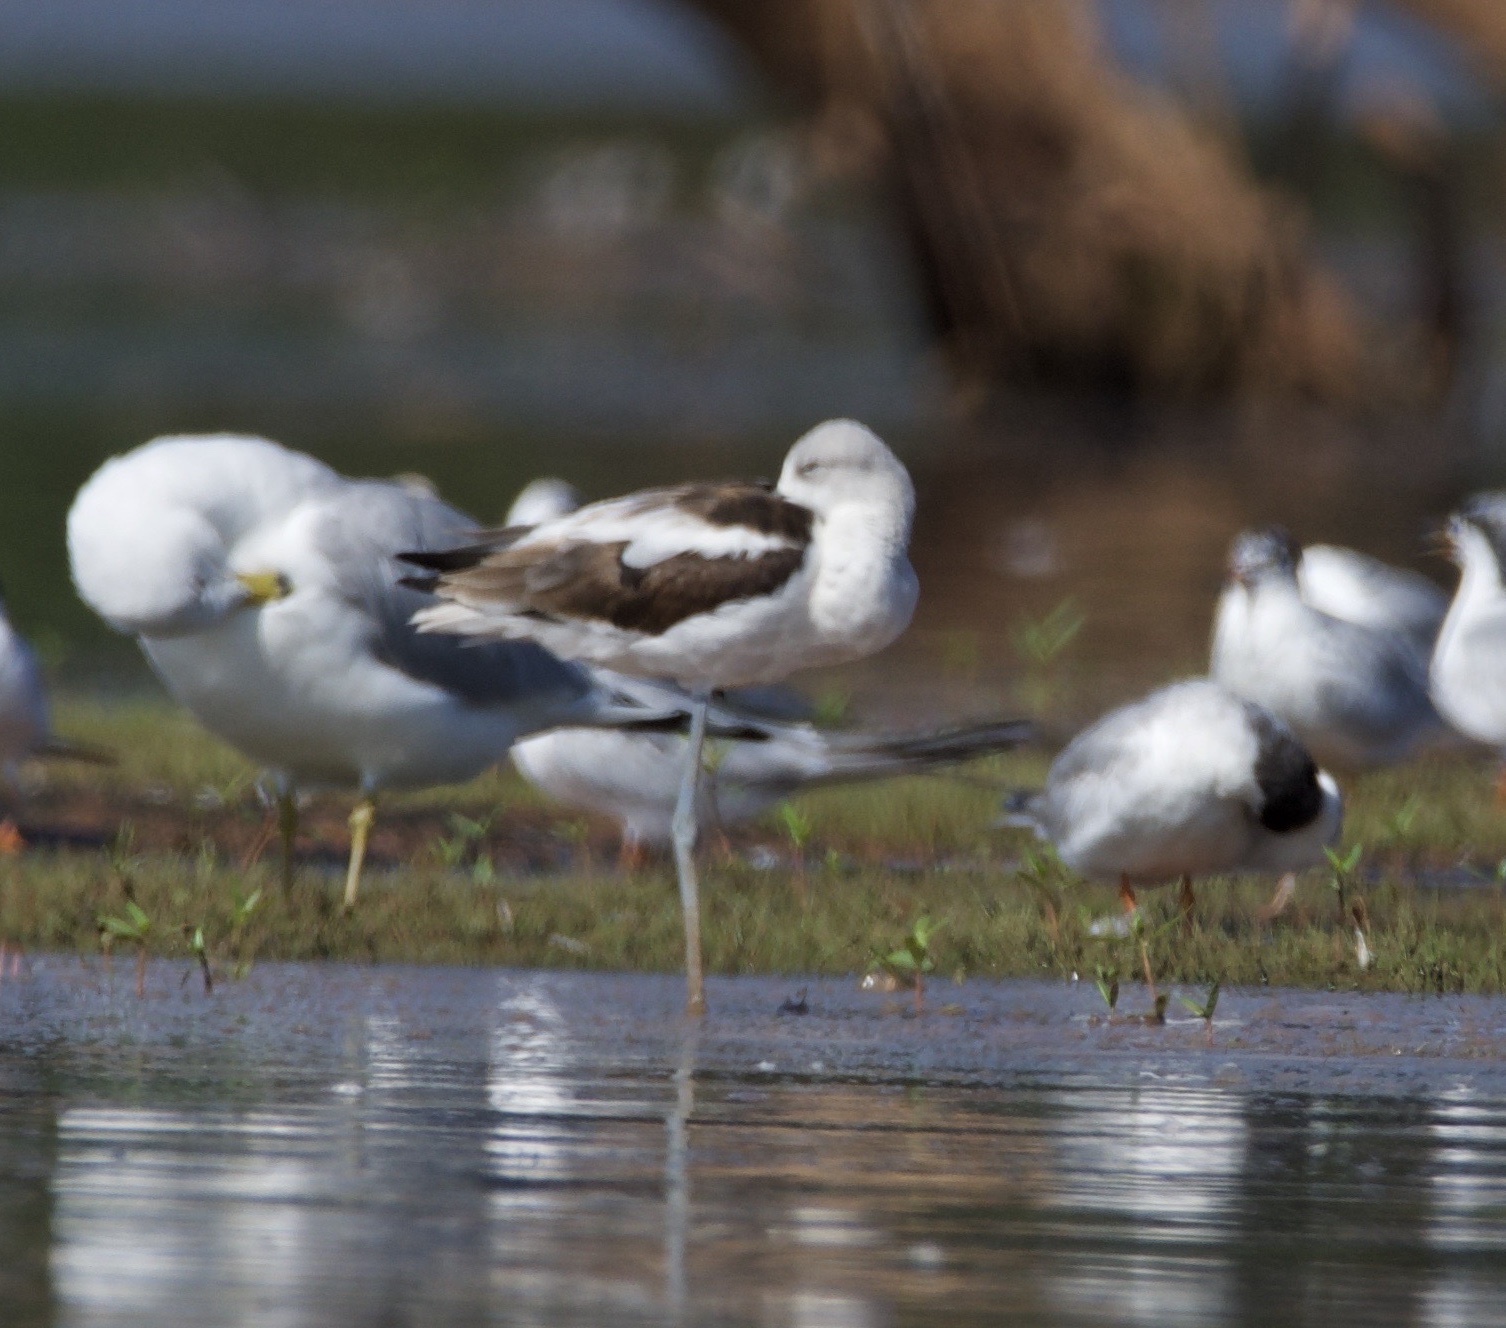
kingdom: Animalia
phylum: Chordata
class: Aves
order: Charadriiformes
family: Recurvirostridae
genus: Recurvirostra
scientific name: Recurvirostra americana
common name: American avocet
